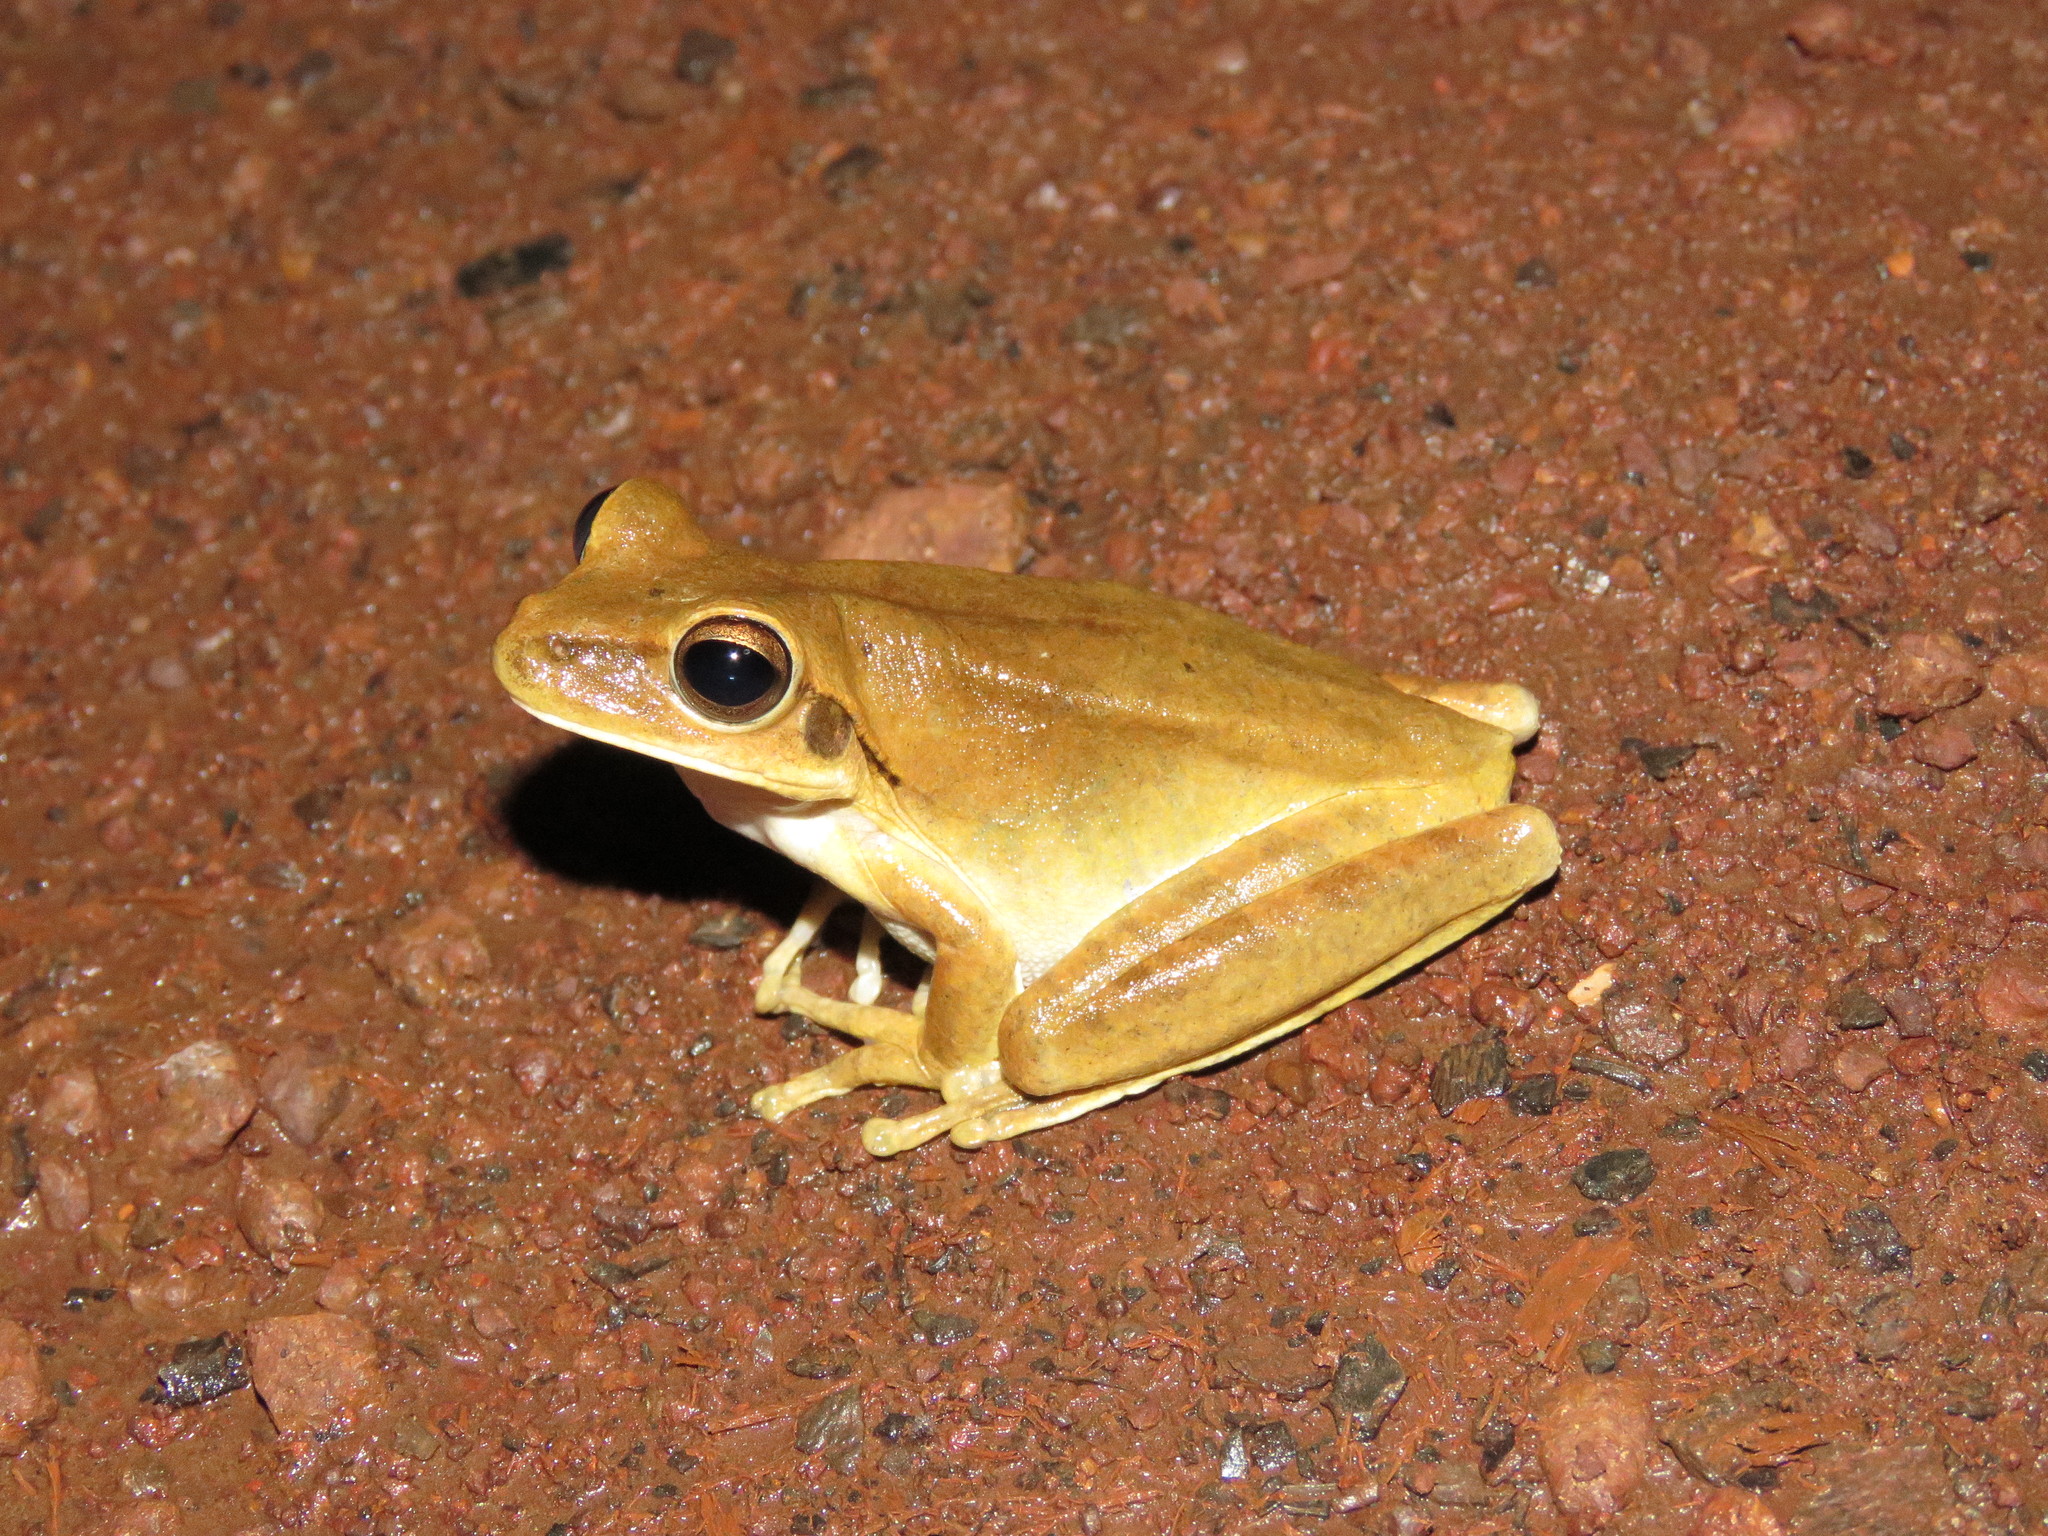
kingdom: Animalia
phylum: Chordata
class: Amphibia
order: Anura
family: Hylidae
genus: Boana
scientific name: Boana raniceps
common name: Chaco treefrog
